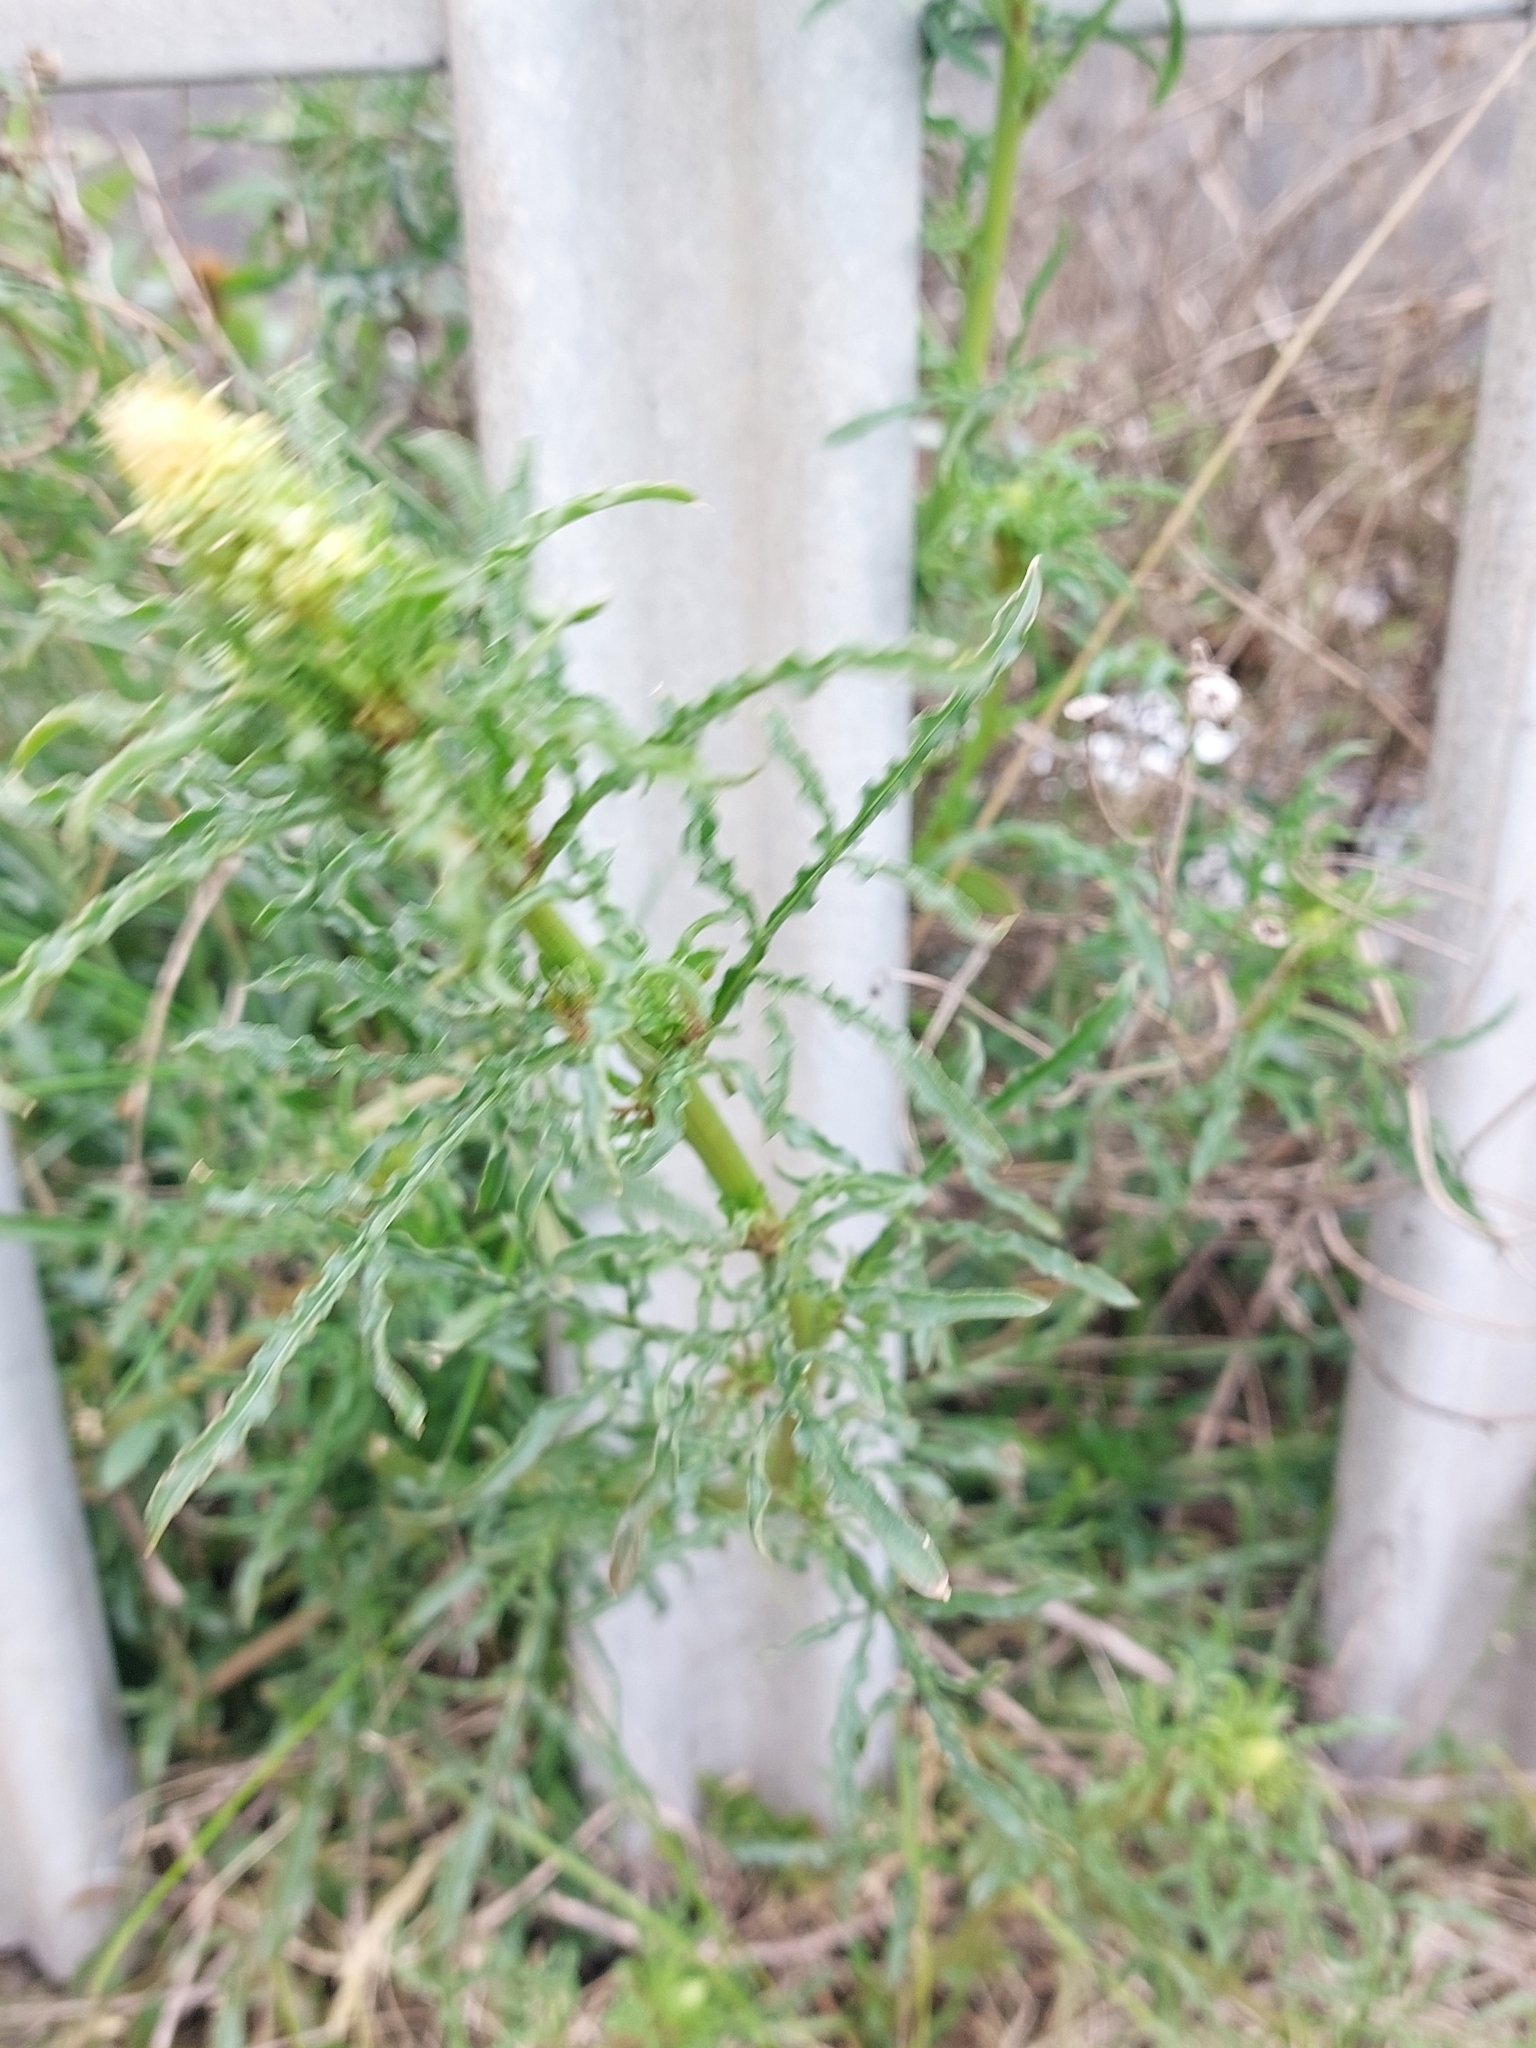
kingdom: Plantae
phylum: Tracheophyta
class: Magnoliopsida
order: Brassicales
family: Resedaceae
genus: Reseda
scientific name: Reseda lutea
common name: Wild mignonette
